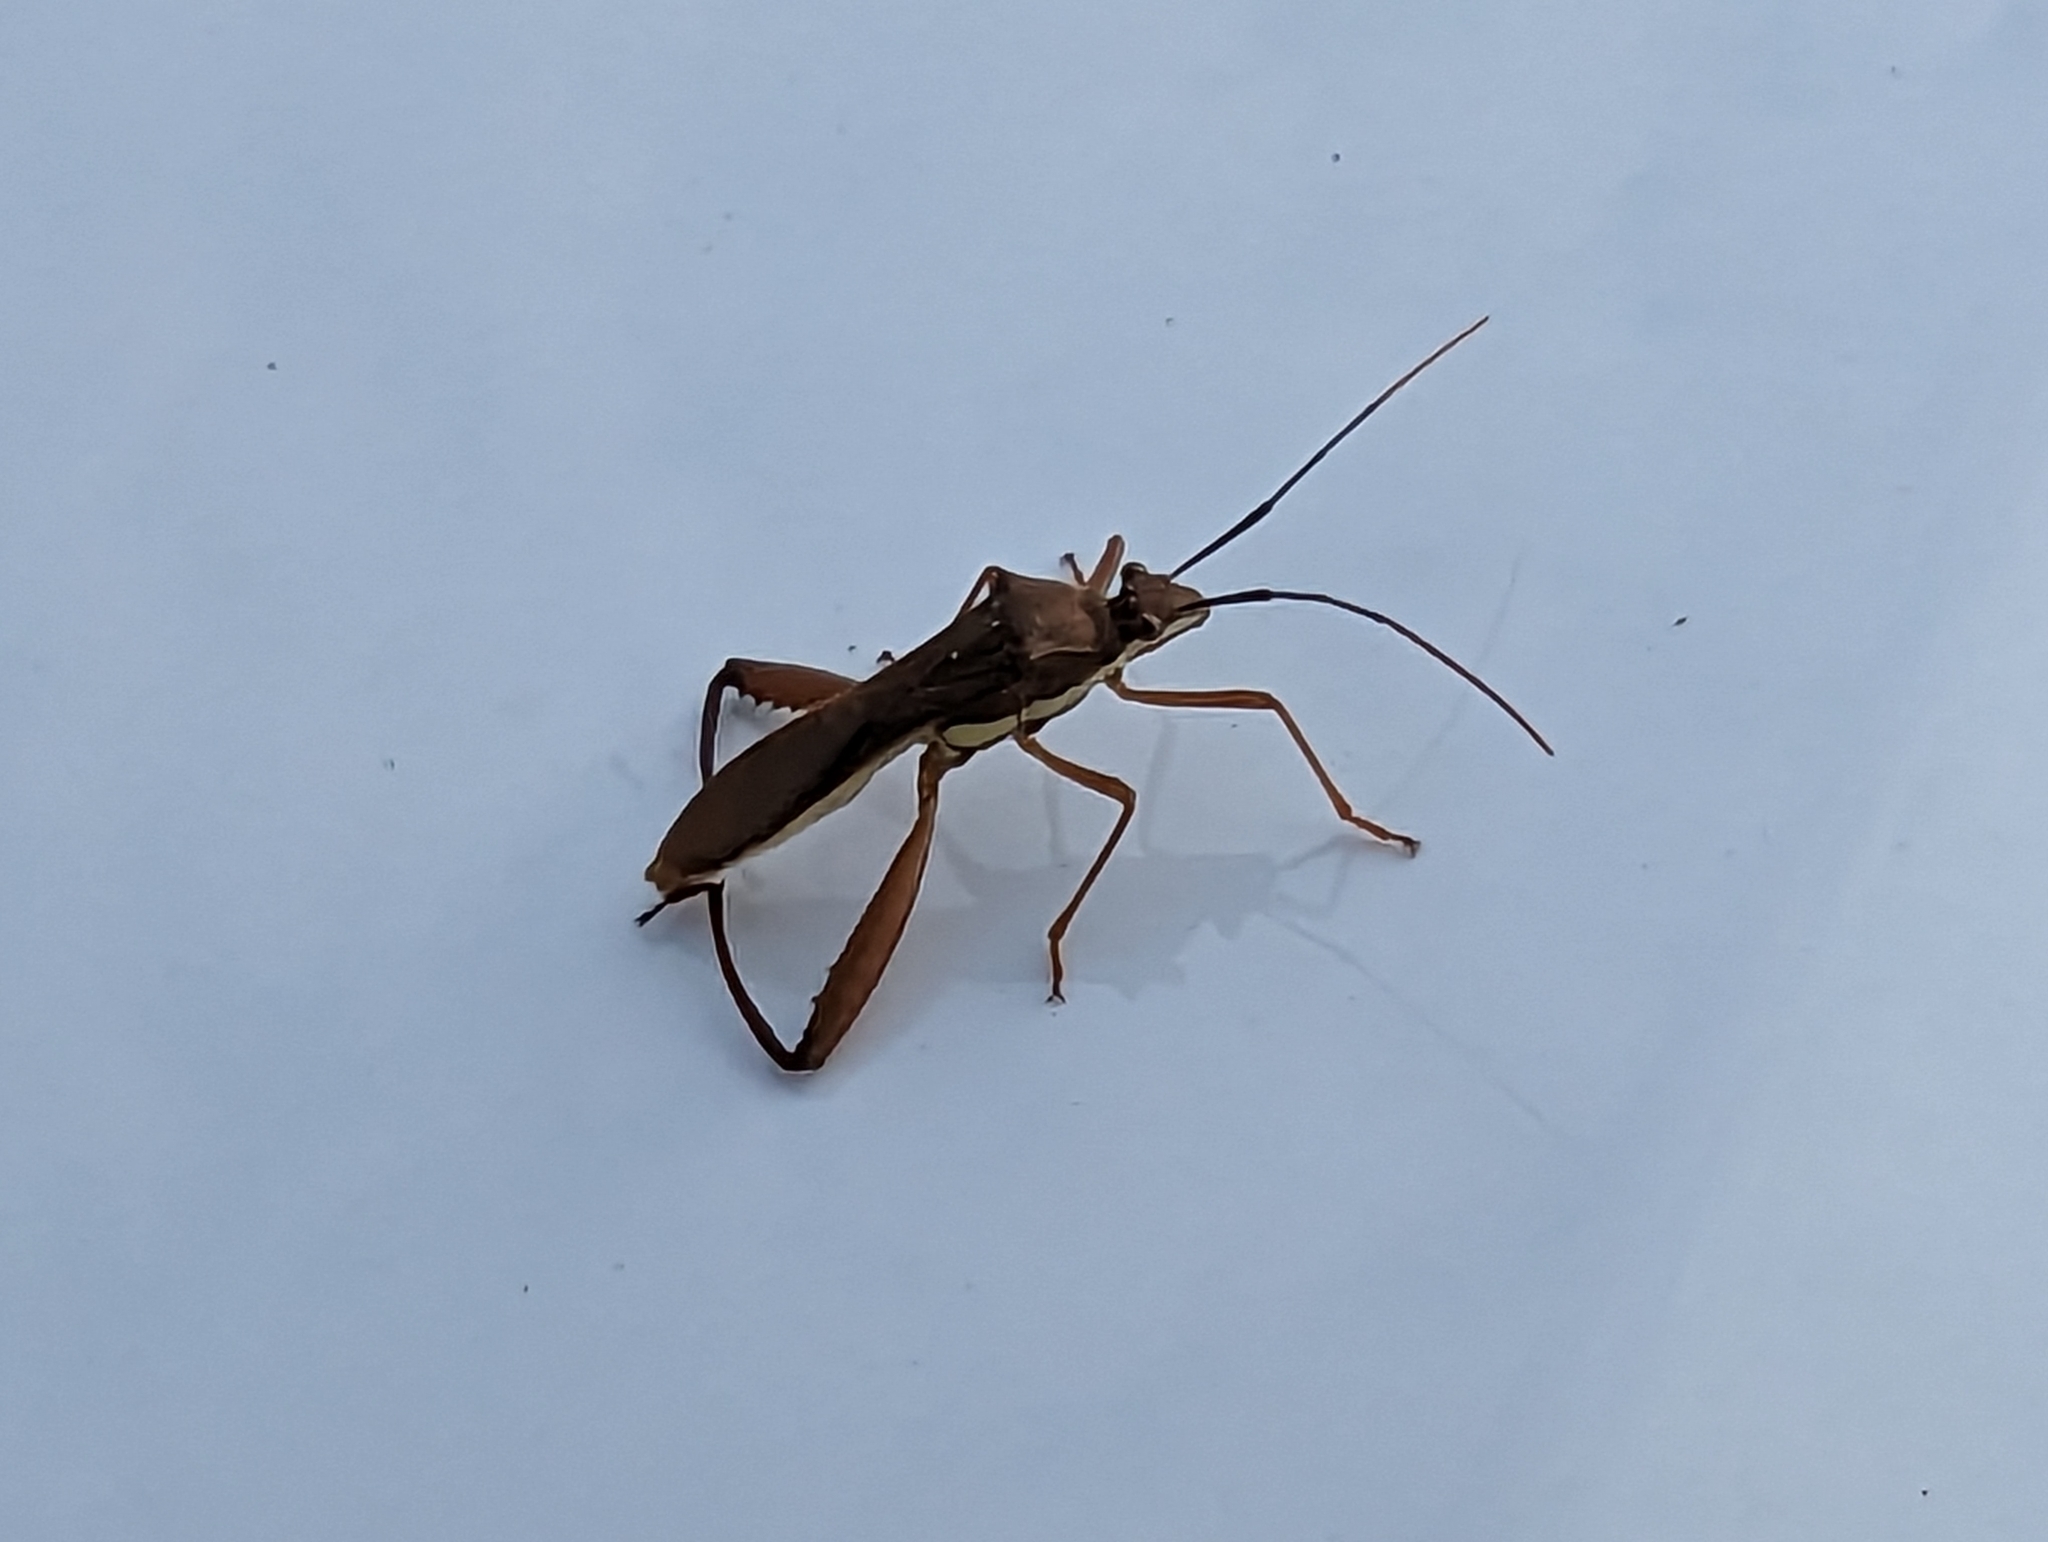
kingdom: Animalia
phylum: Arthropoda
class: Insecta
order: Hemiptera
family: Alydidae
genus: Riptortus
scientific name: Riptortus linearis
